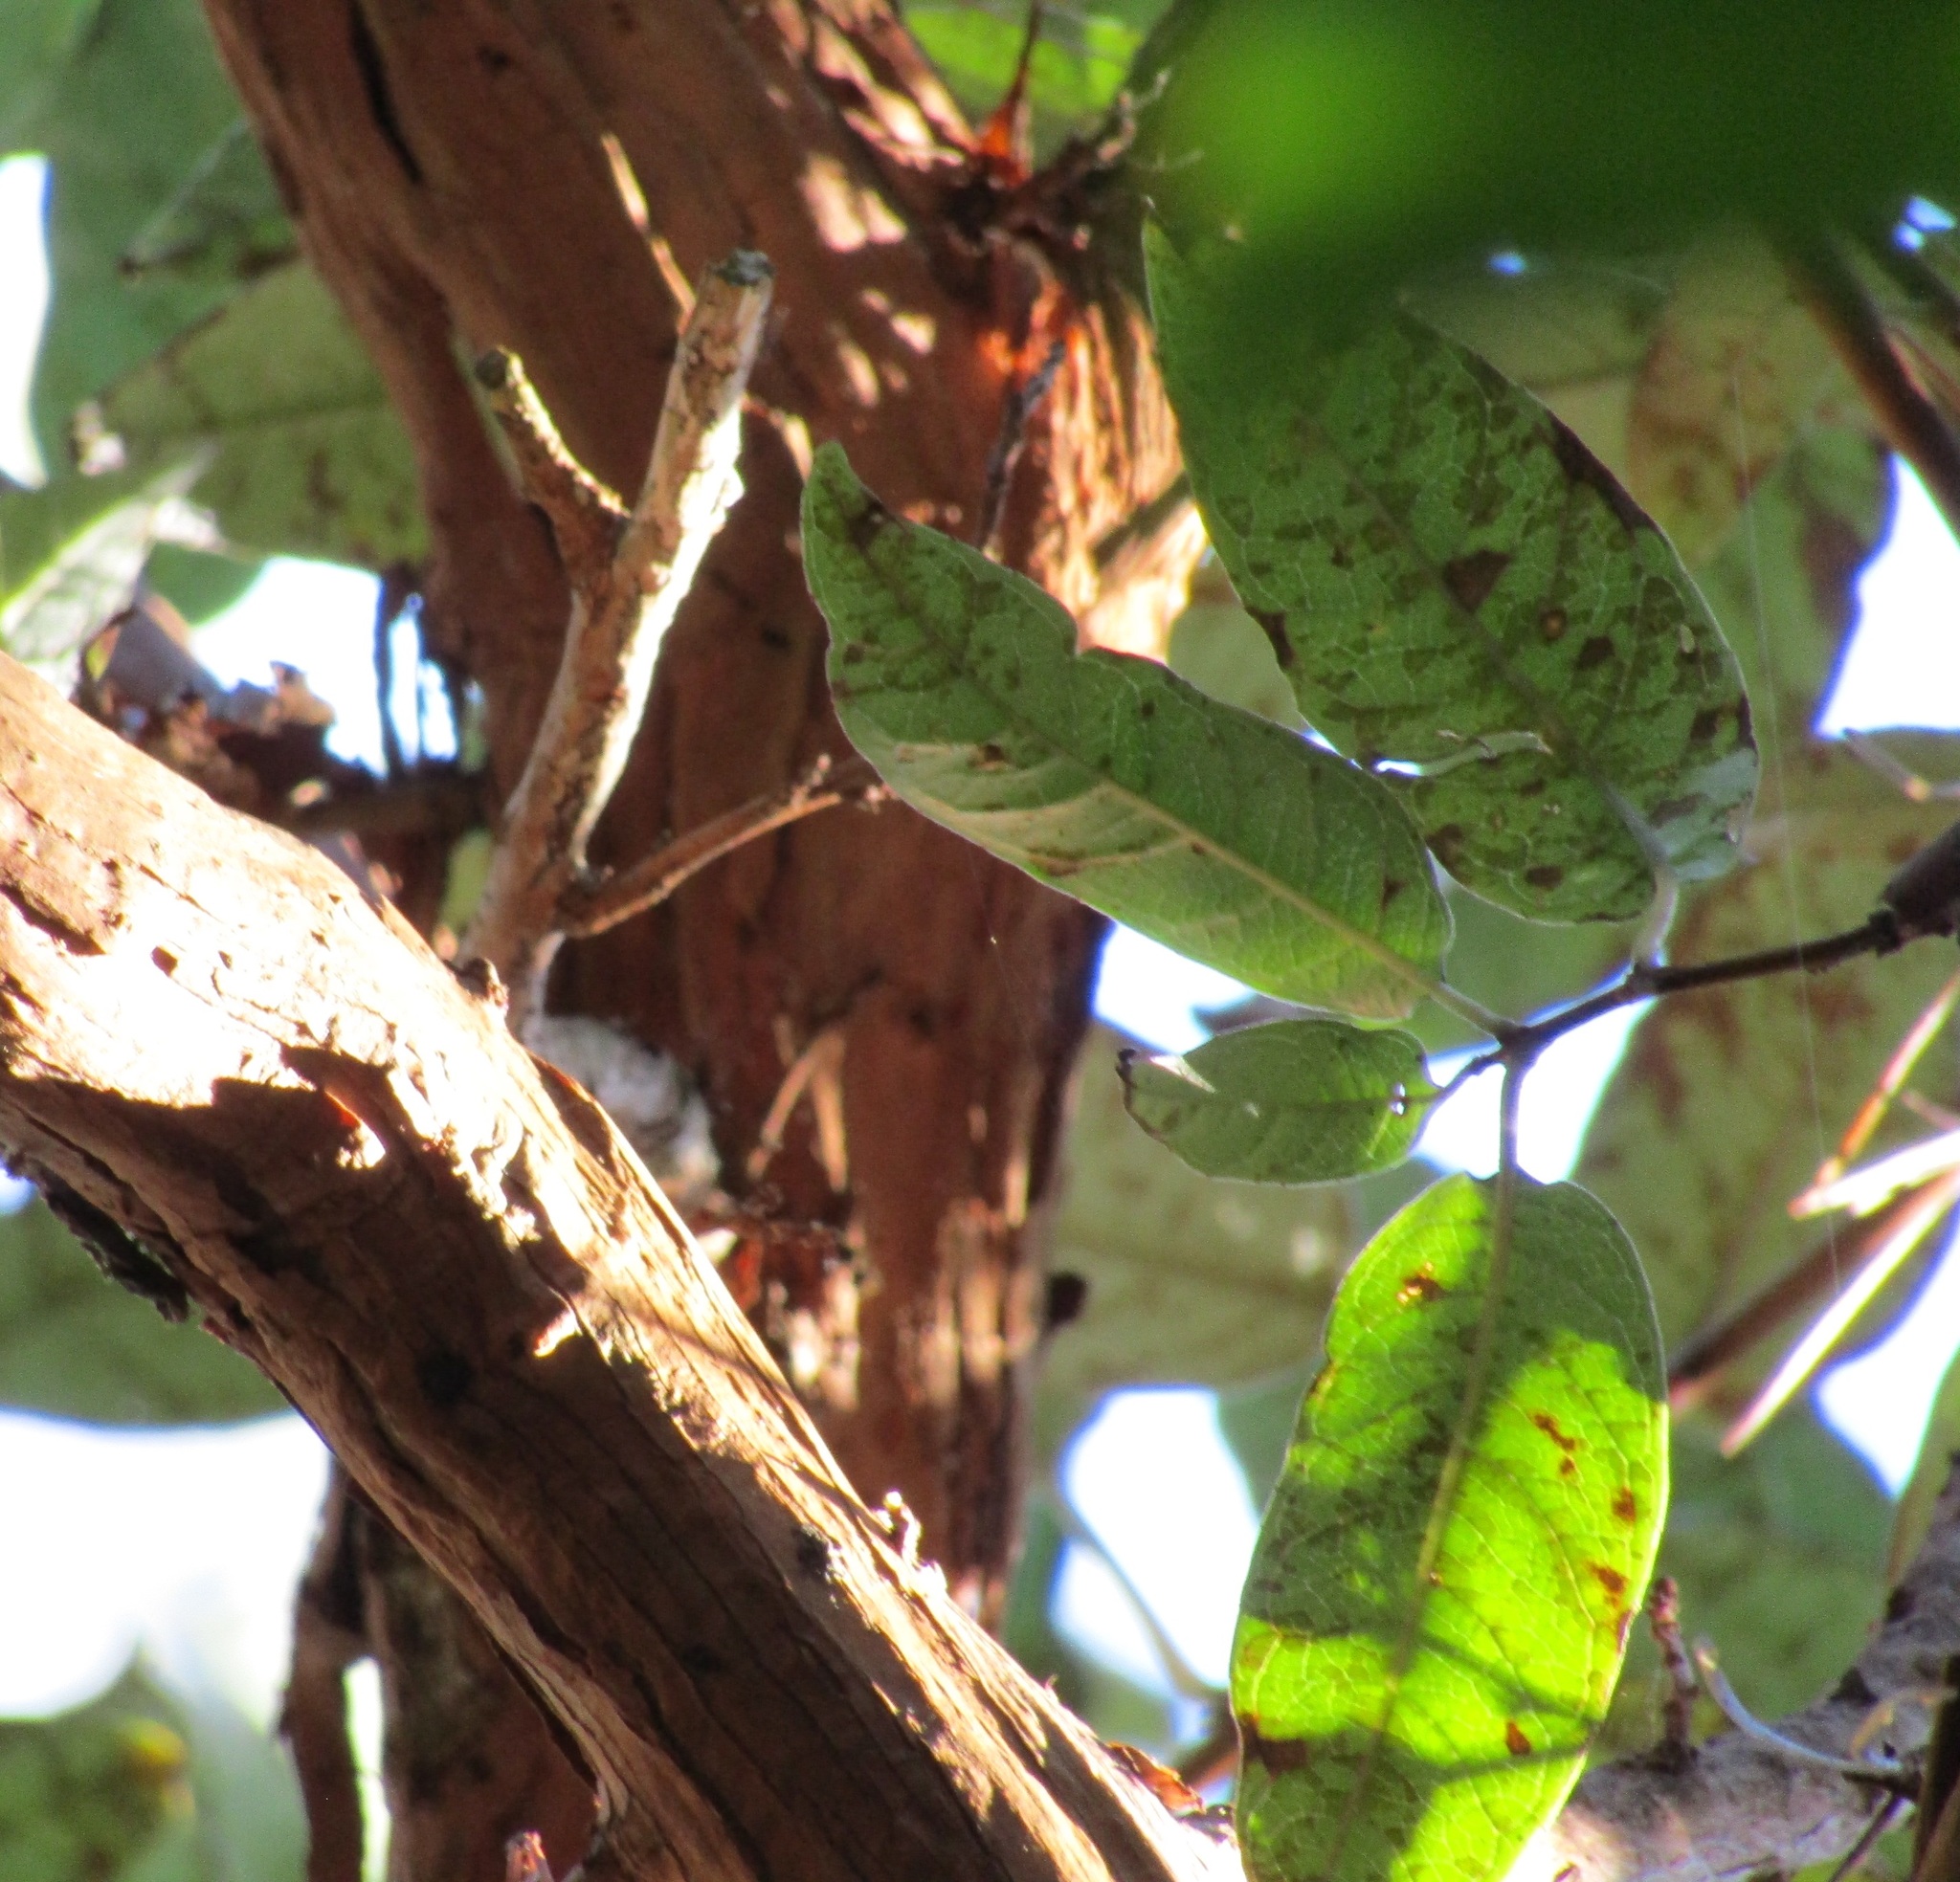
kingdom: Plantae
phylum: Tracheophyta
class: Magnoliopsida
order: Myrtales
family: Onagraceae
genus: Fuchsia
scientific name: Fuchsia excorticata
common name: Tree fuchsia
